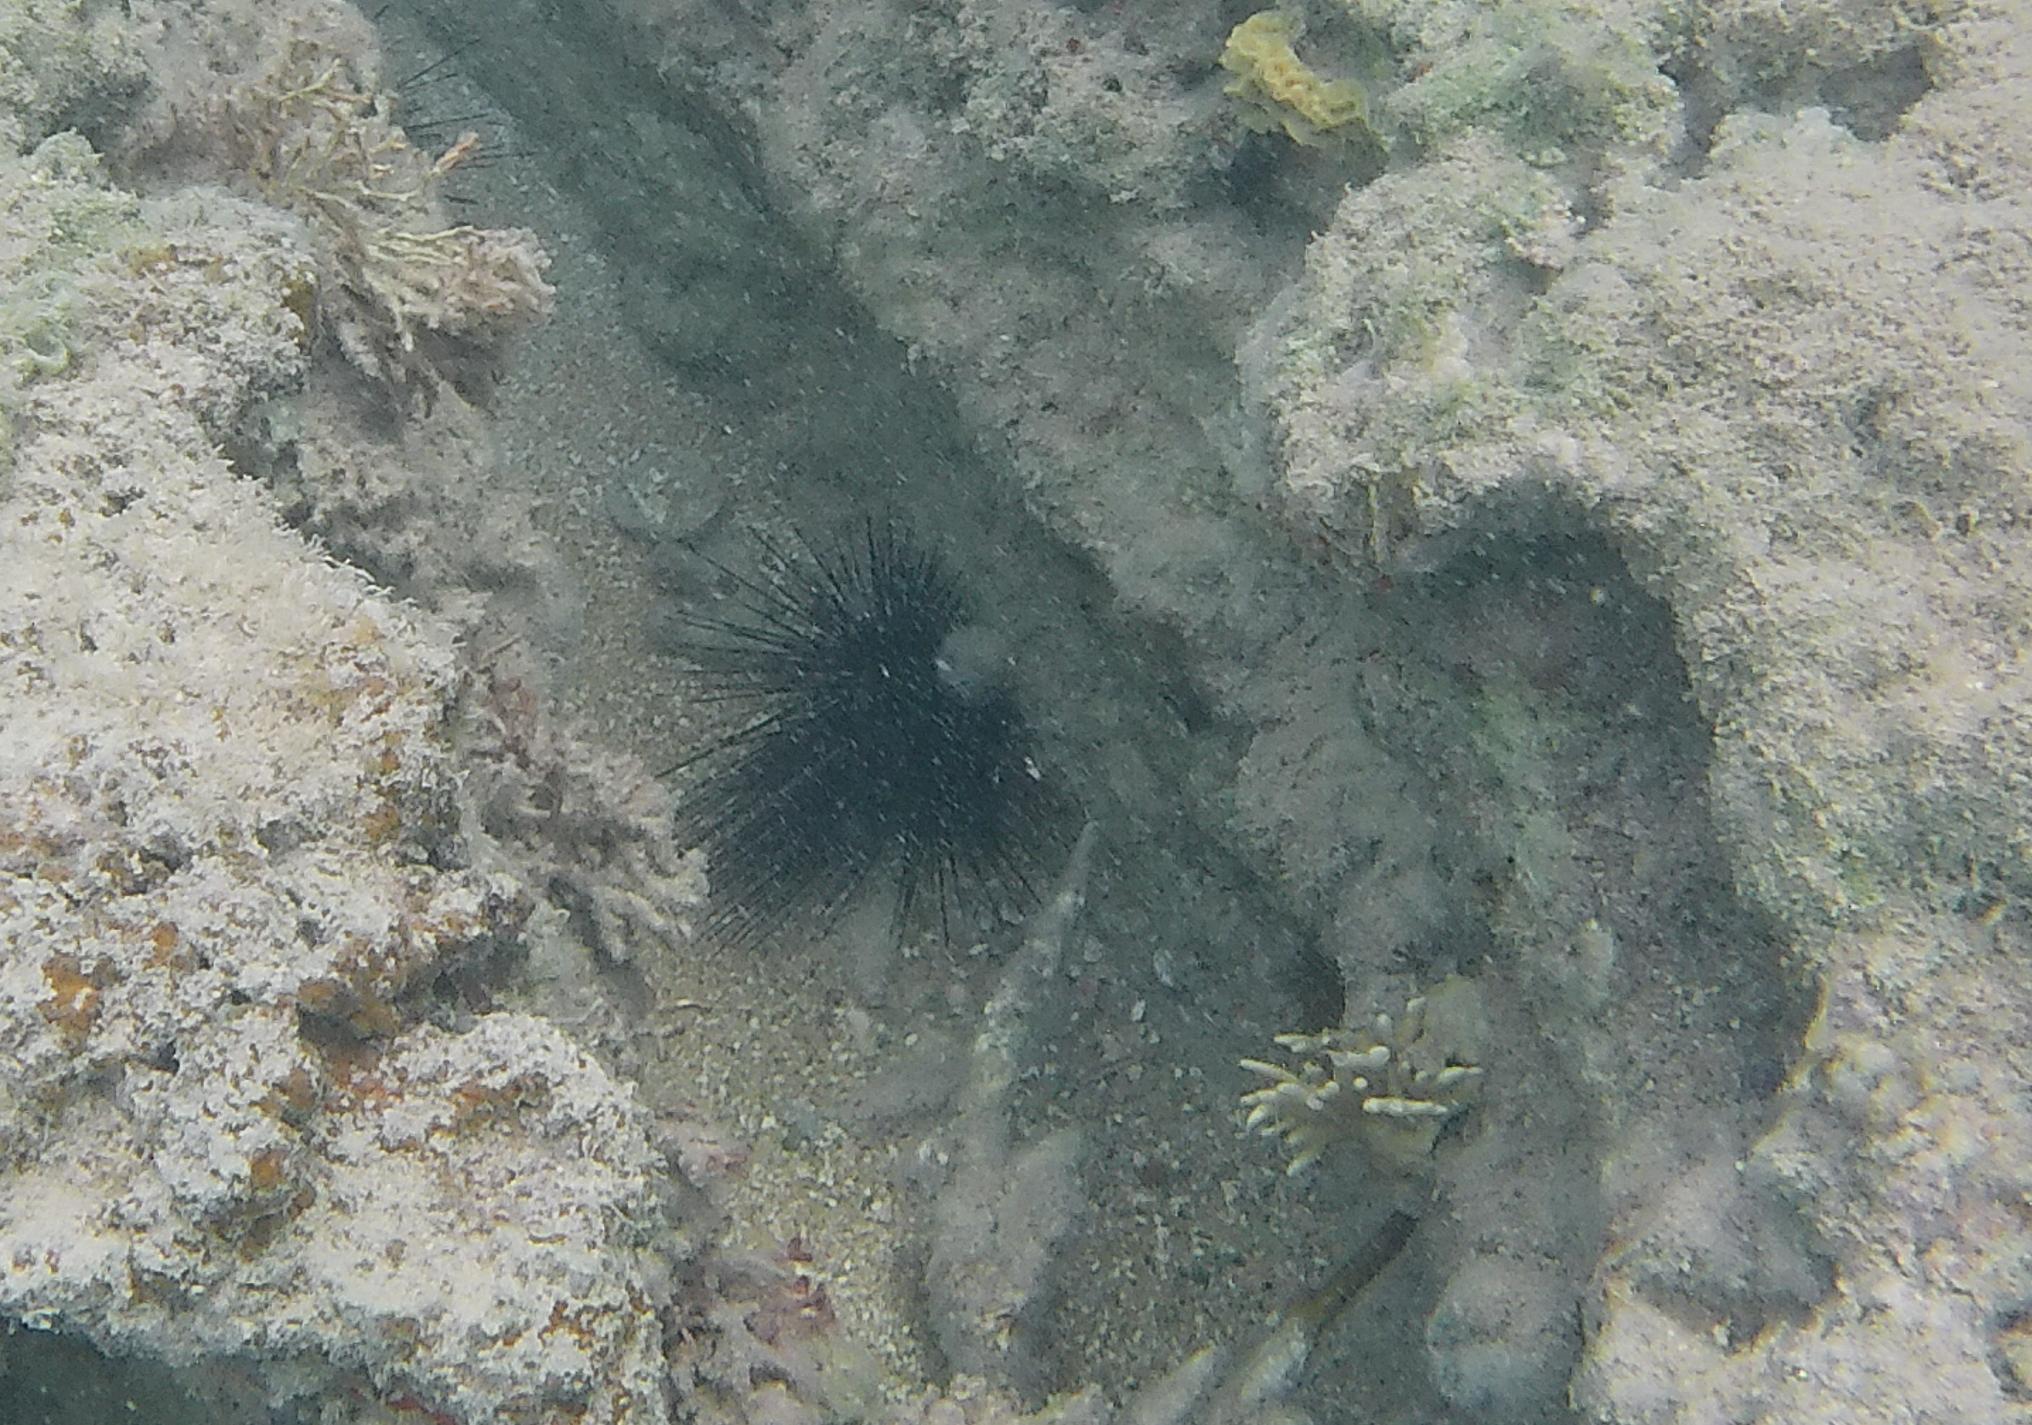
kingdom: Animalia
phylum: Echinodermata
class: Echinoidea
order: Diadematoida
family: Diadematidae
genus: Diadema
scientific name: Diadema antillarum
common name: Spiny urchin
